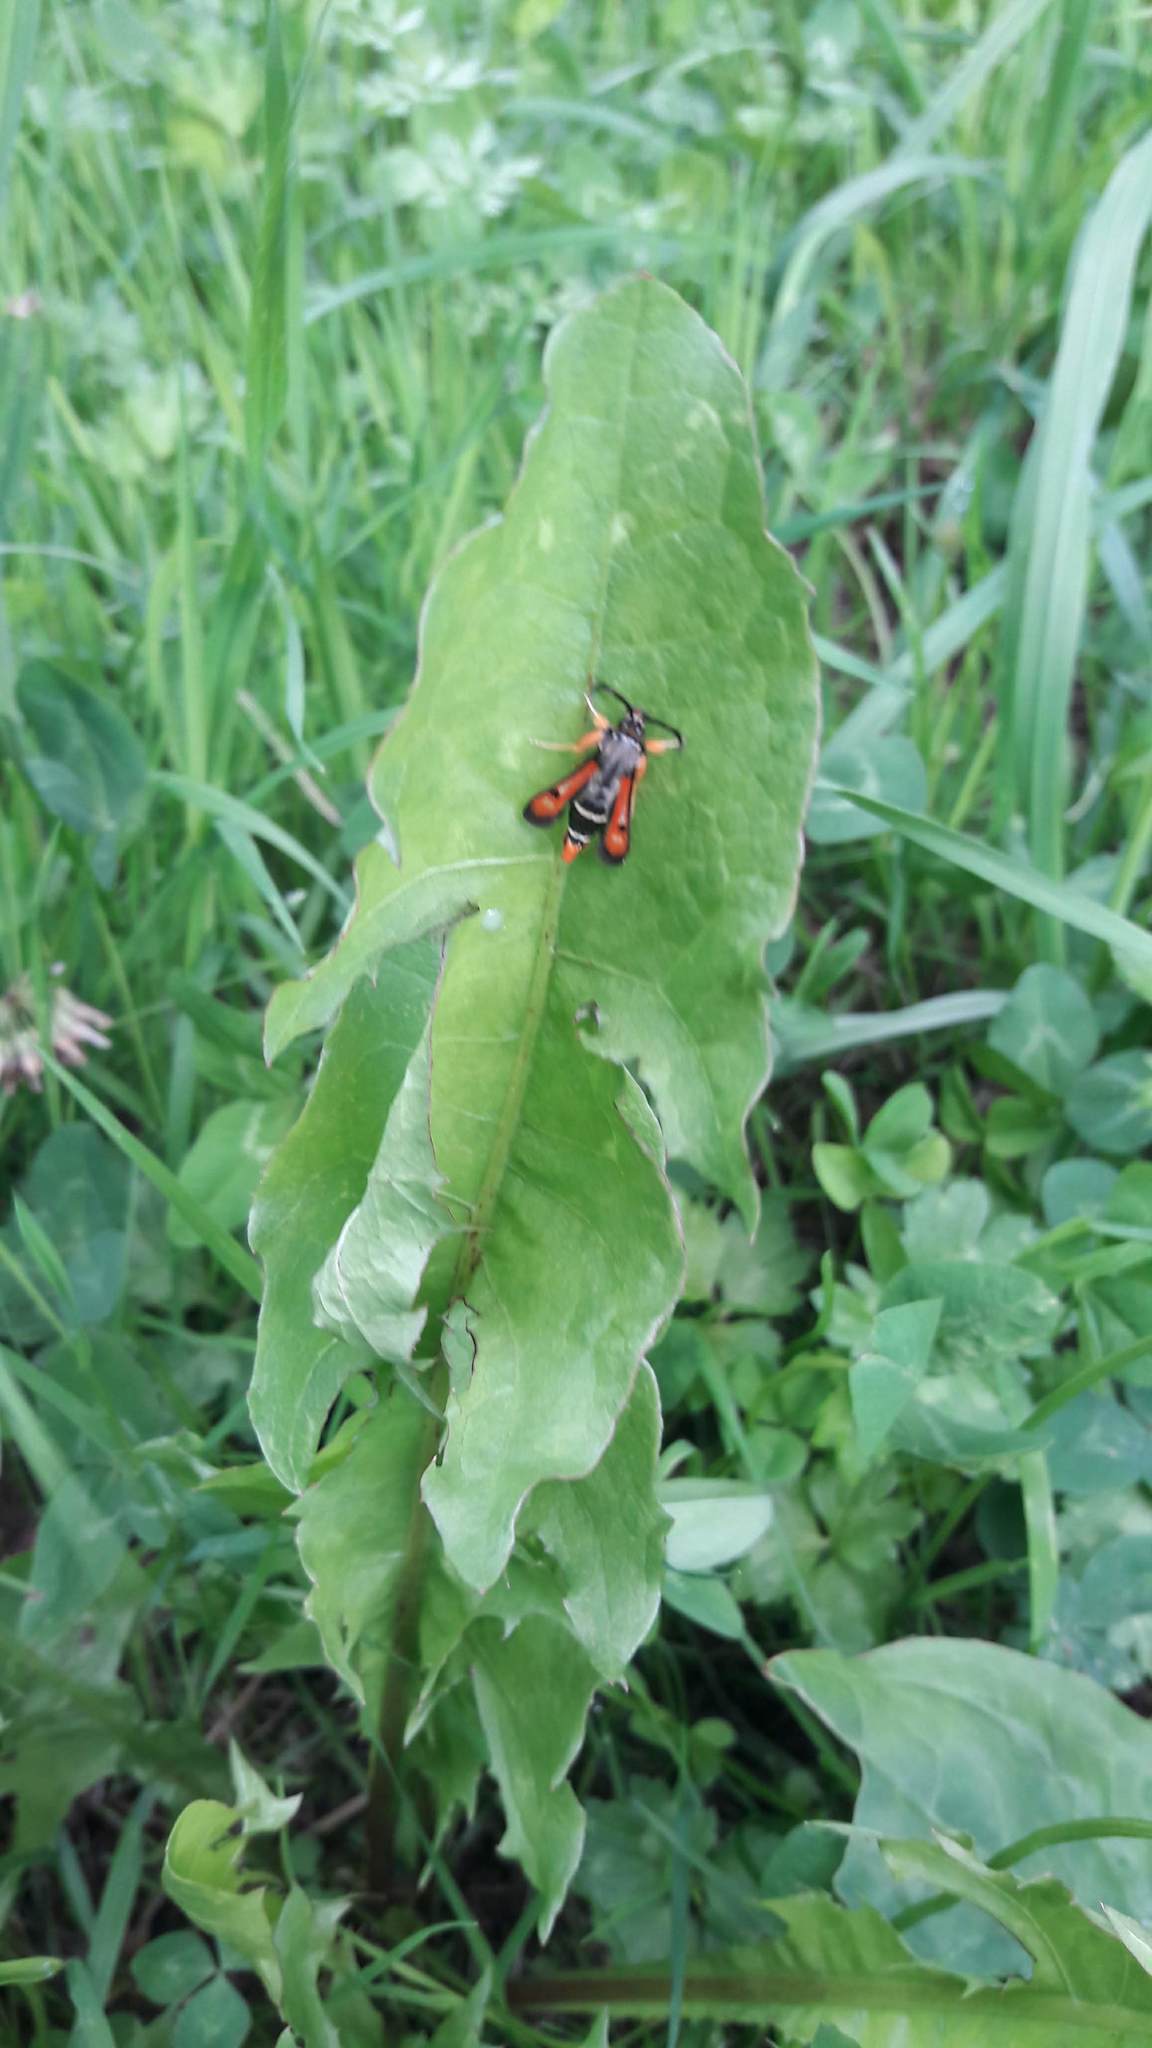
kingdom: Animalia
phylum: Arthropoda
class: Insecta
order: Lepidoptera
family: Sesiidae
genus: Pyropteron
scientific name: Pyropteron chrysidiforme
